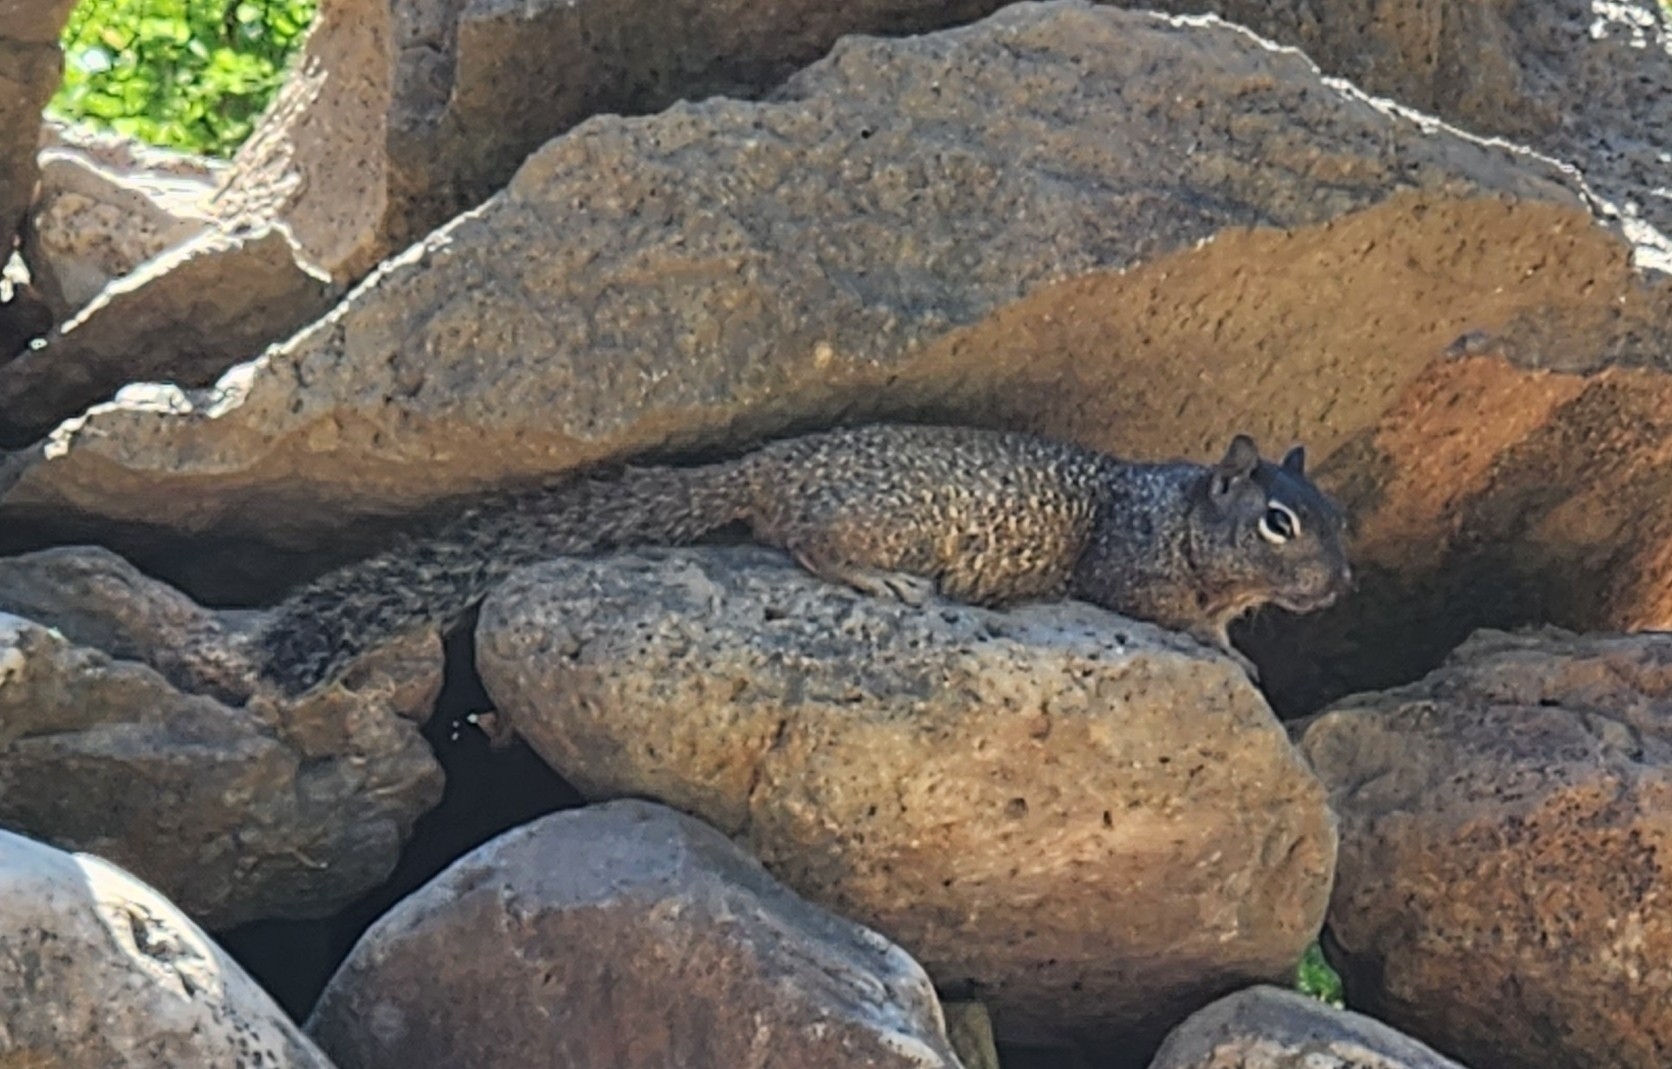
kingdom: Animalia
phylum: Chordata
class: Mammalia
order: Rodentia
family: Sciuridae
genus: Otospermophilus
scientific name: Otospermophilus atricapillus
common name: Baja california rock squirrel
